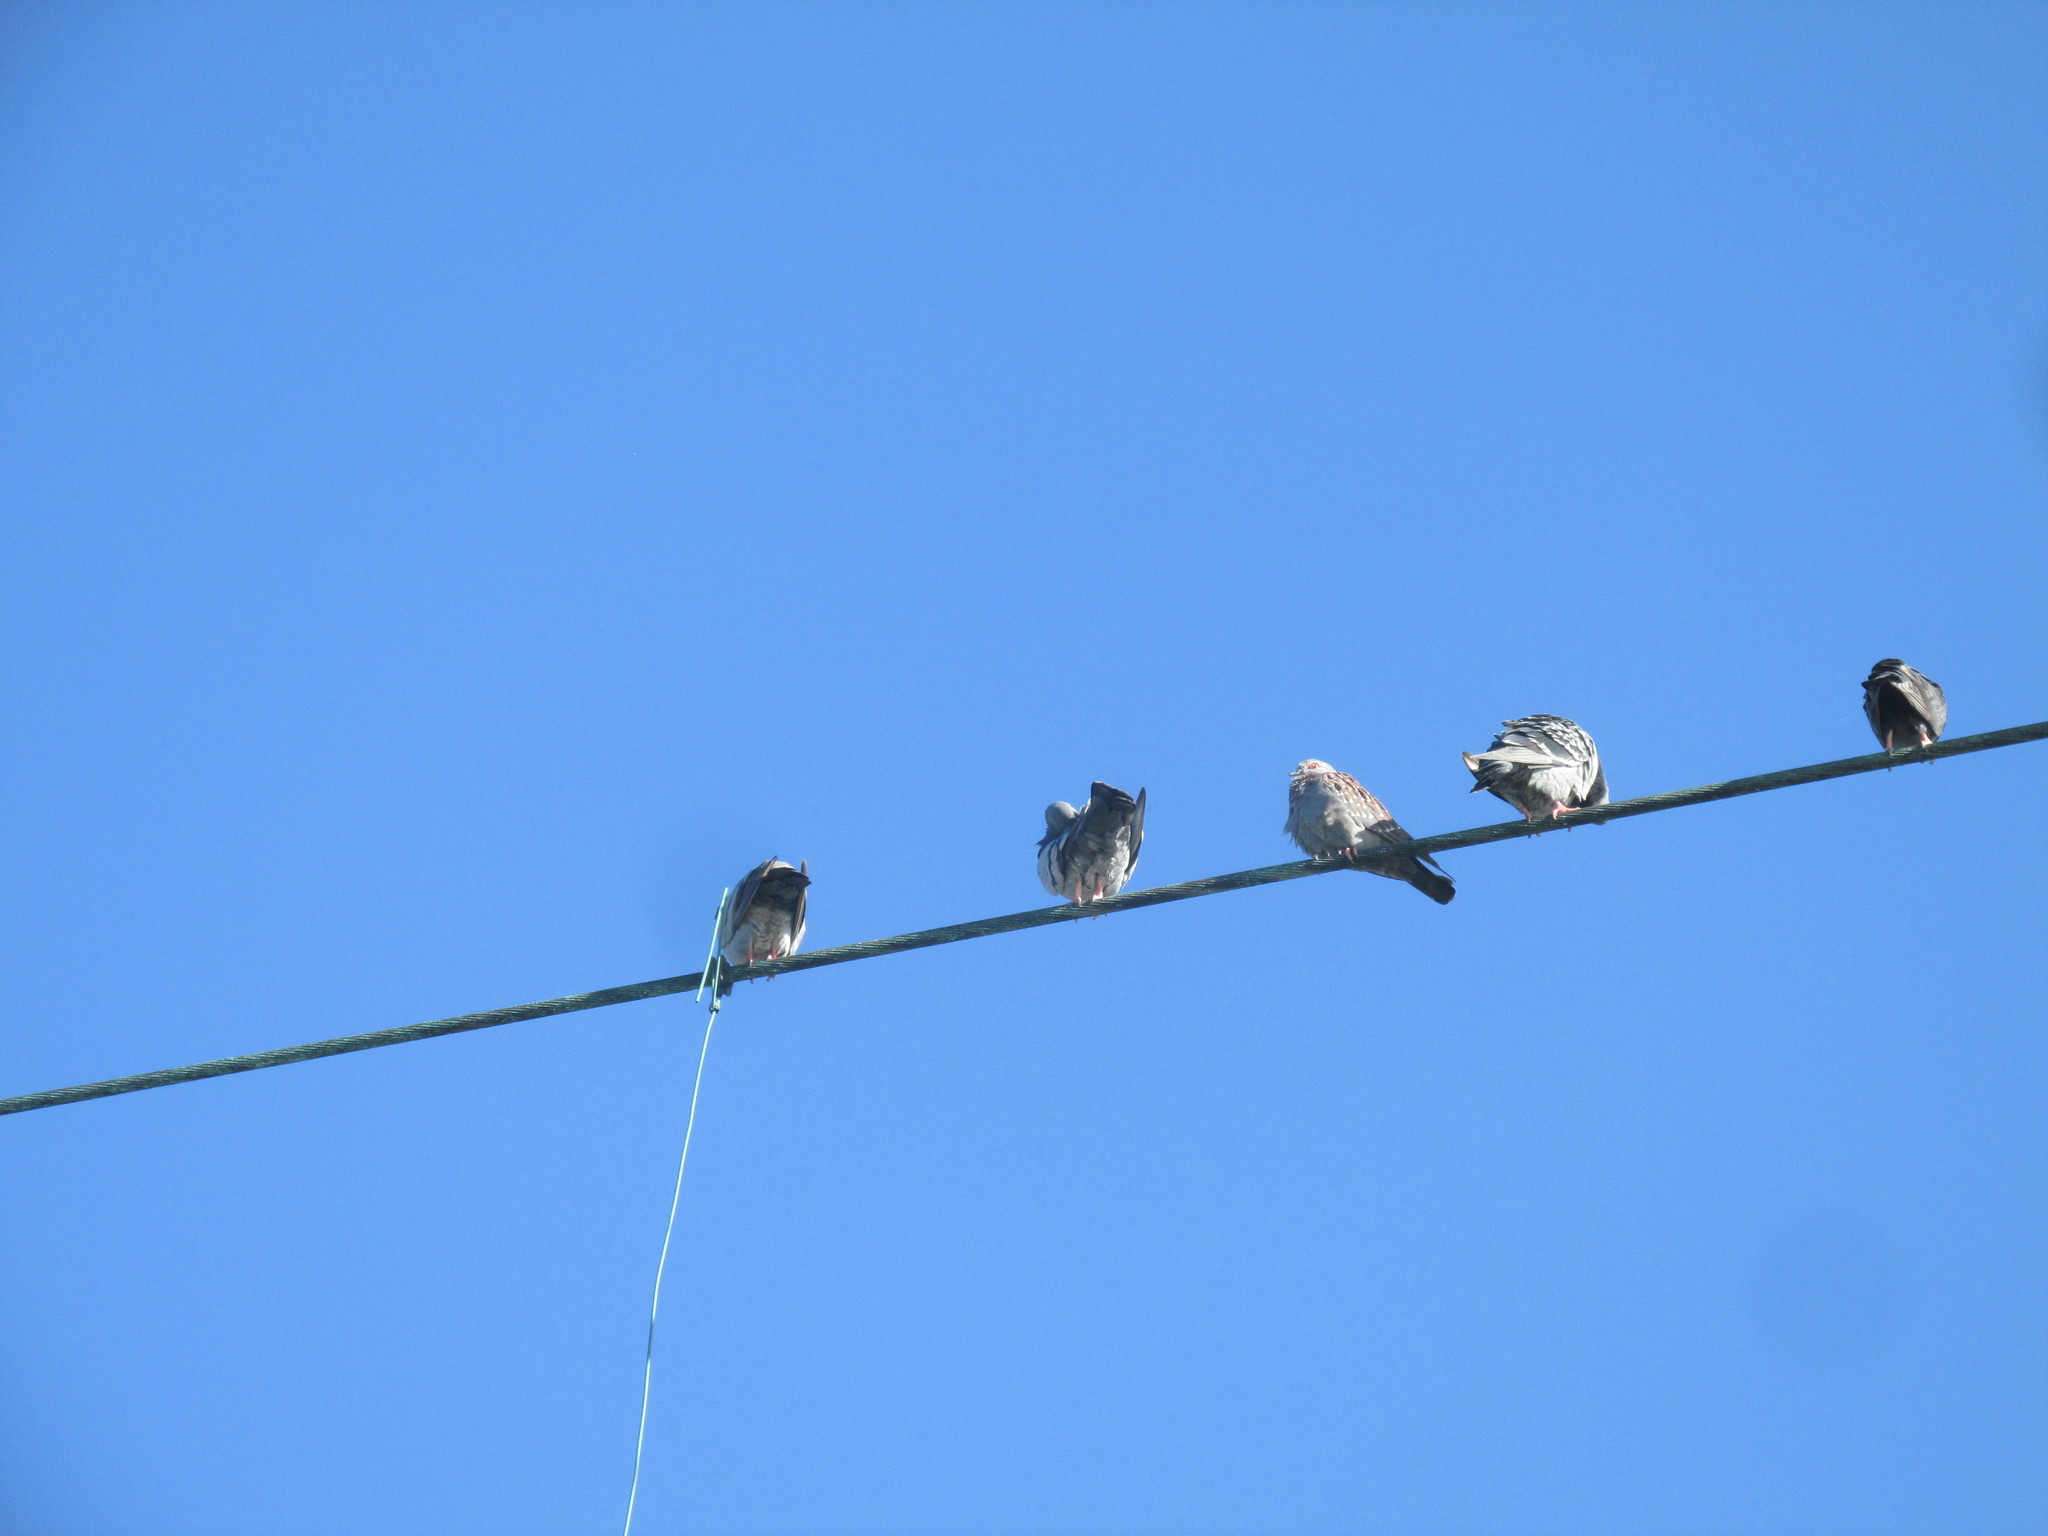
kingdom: Animalia
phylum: Chordata
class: Aves
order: Columbiformes
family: Columbidae
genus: Columba
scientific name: Columba guinea
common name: Speckled pigeon
